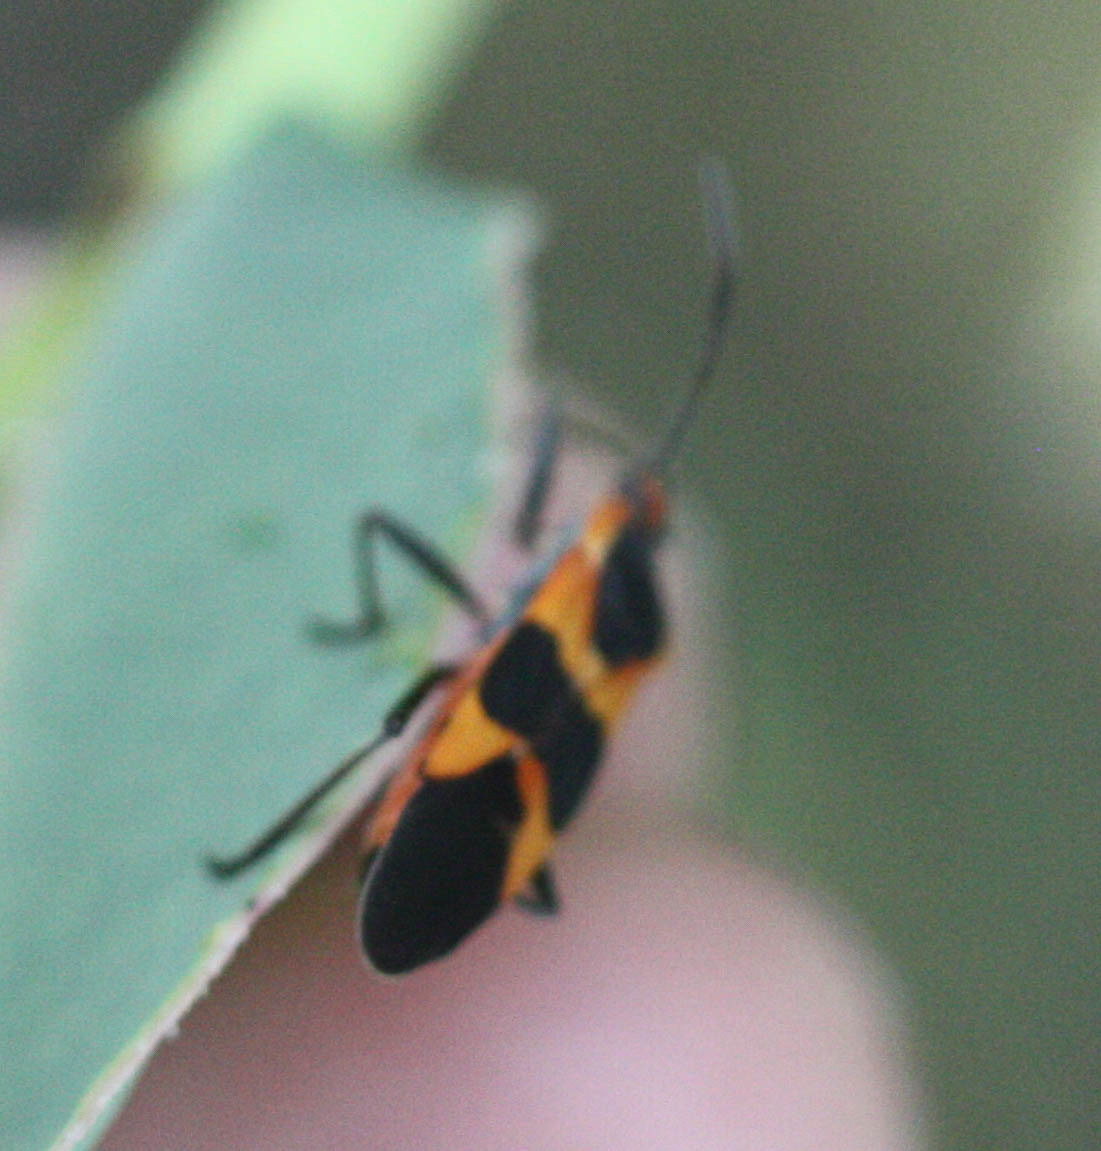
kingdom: Animalia
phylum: Arthropoda
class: Insecta
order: Hemiptera
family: Lygaeidae
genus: Oncopeltus
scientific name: Oncopeltus fasciatus
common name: Large milkweed bug
